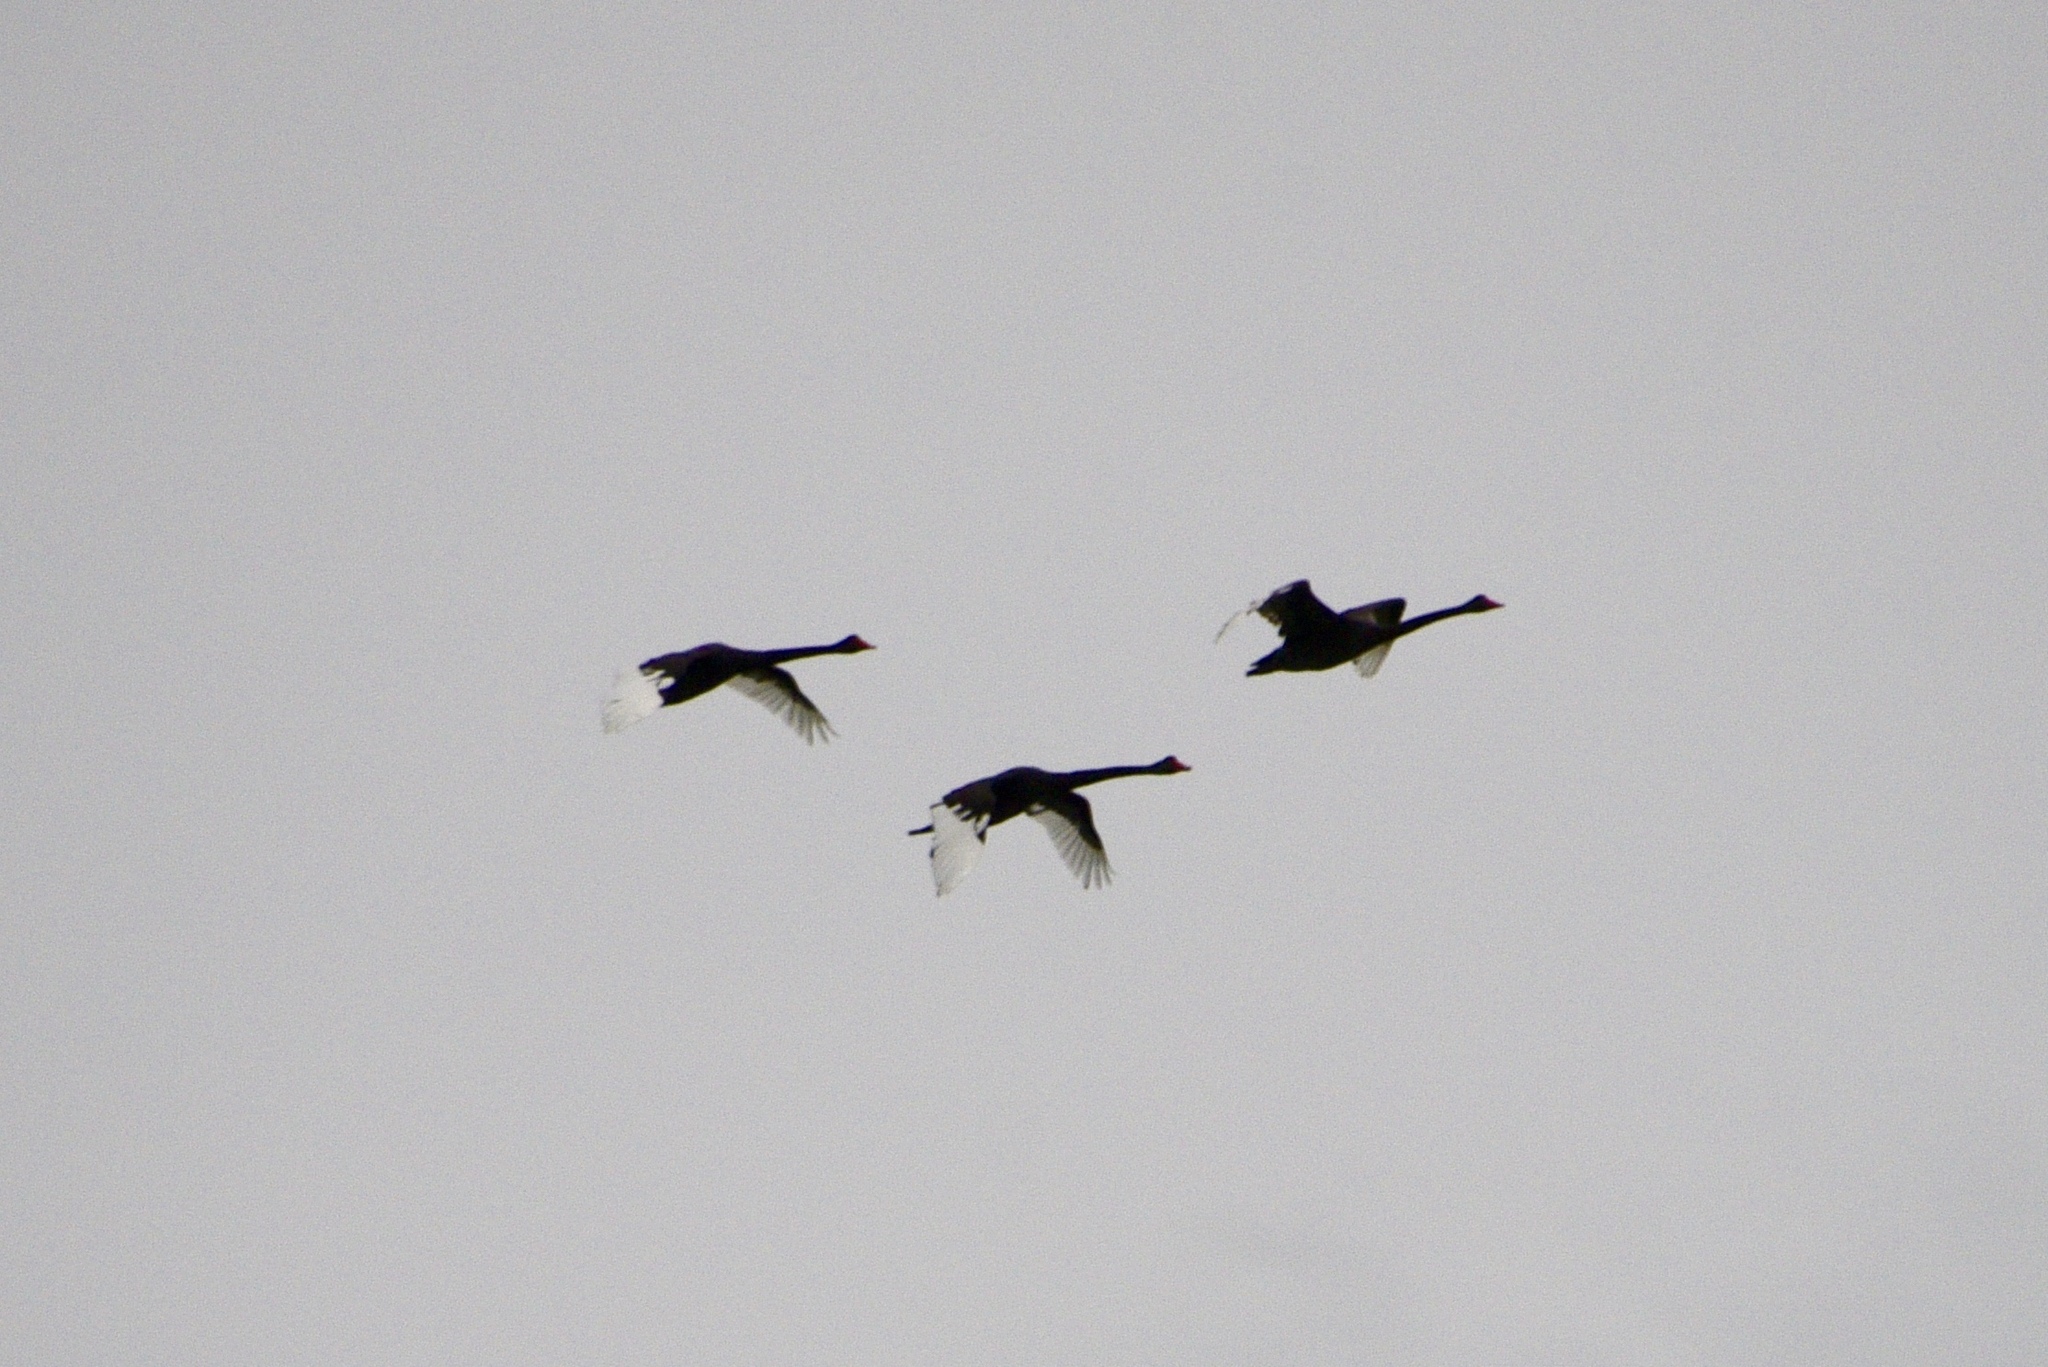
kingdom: Animalia
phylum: Chordata
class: Aves
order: Anseriformes
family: Anatidae
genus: Cygnus
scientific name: Cygnus atratus
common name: Black swan
